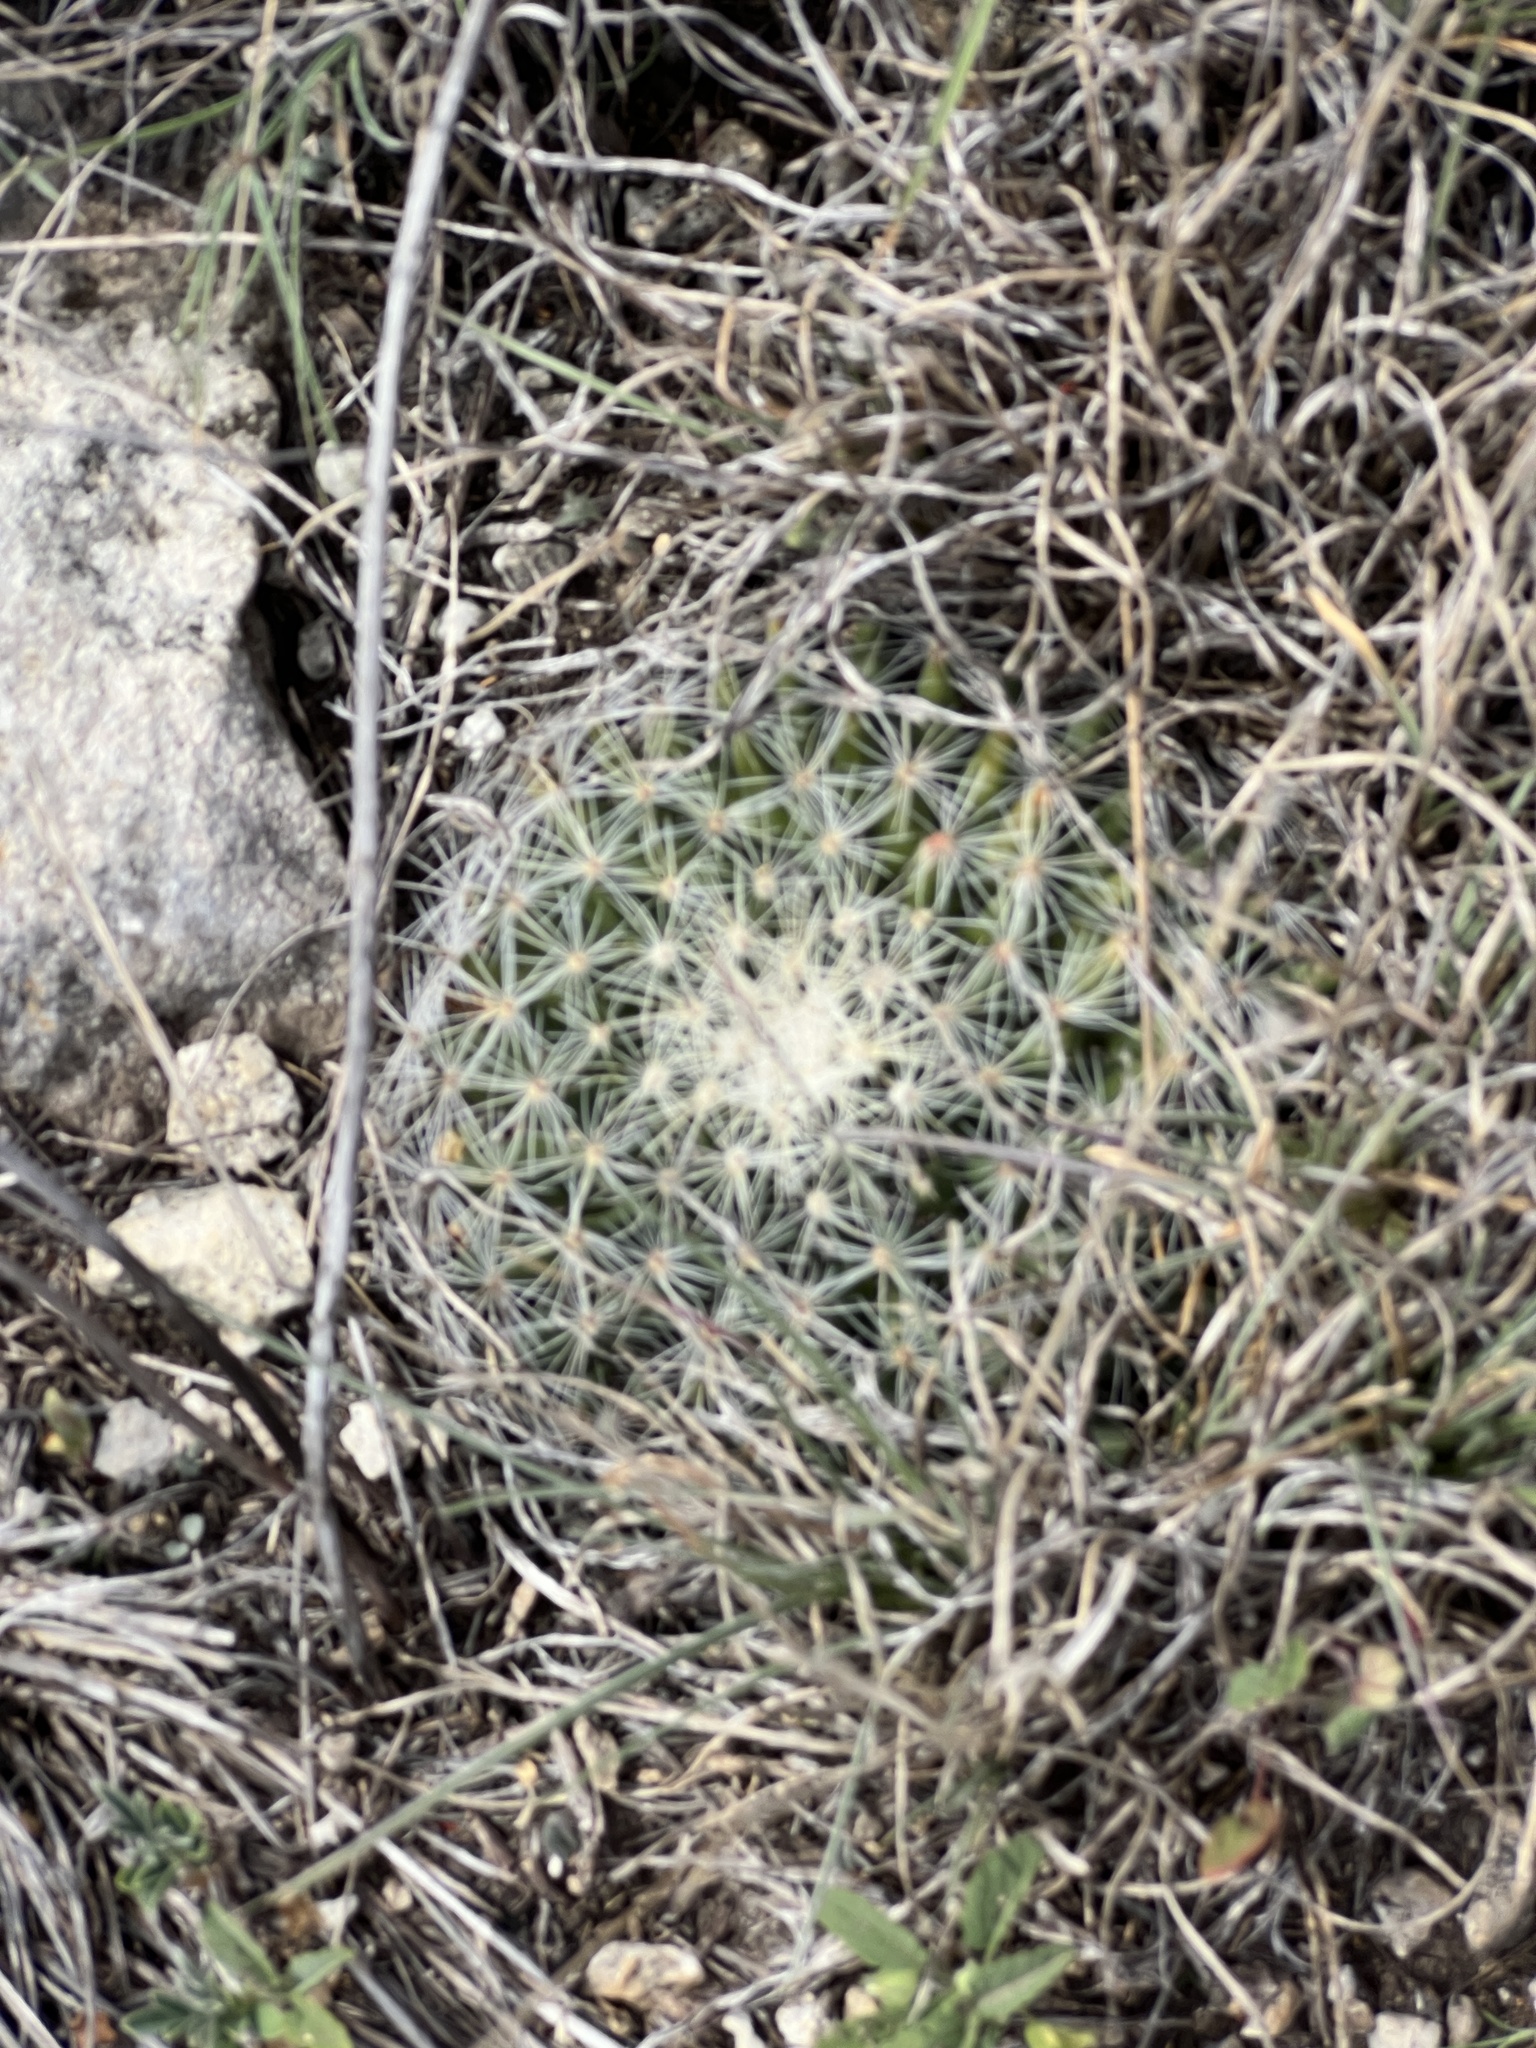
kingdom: Plantae
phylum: Tracheophyta
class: Magnoliopsida
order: Caryophyllales
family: Cactaceae
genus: Mammillaria
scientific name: Mammillaria heyderi
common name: Little nipple cactus
